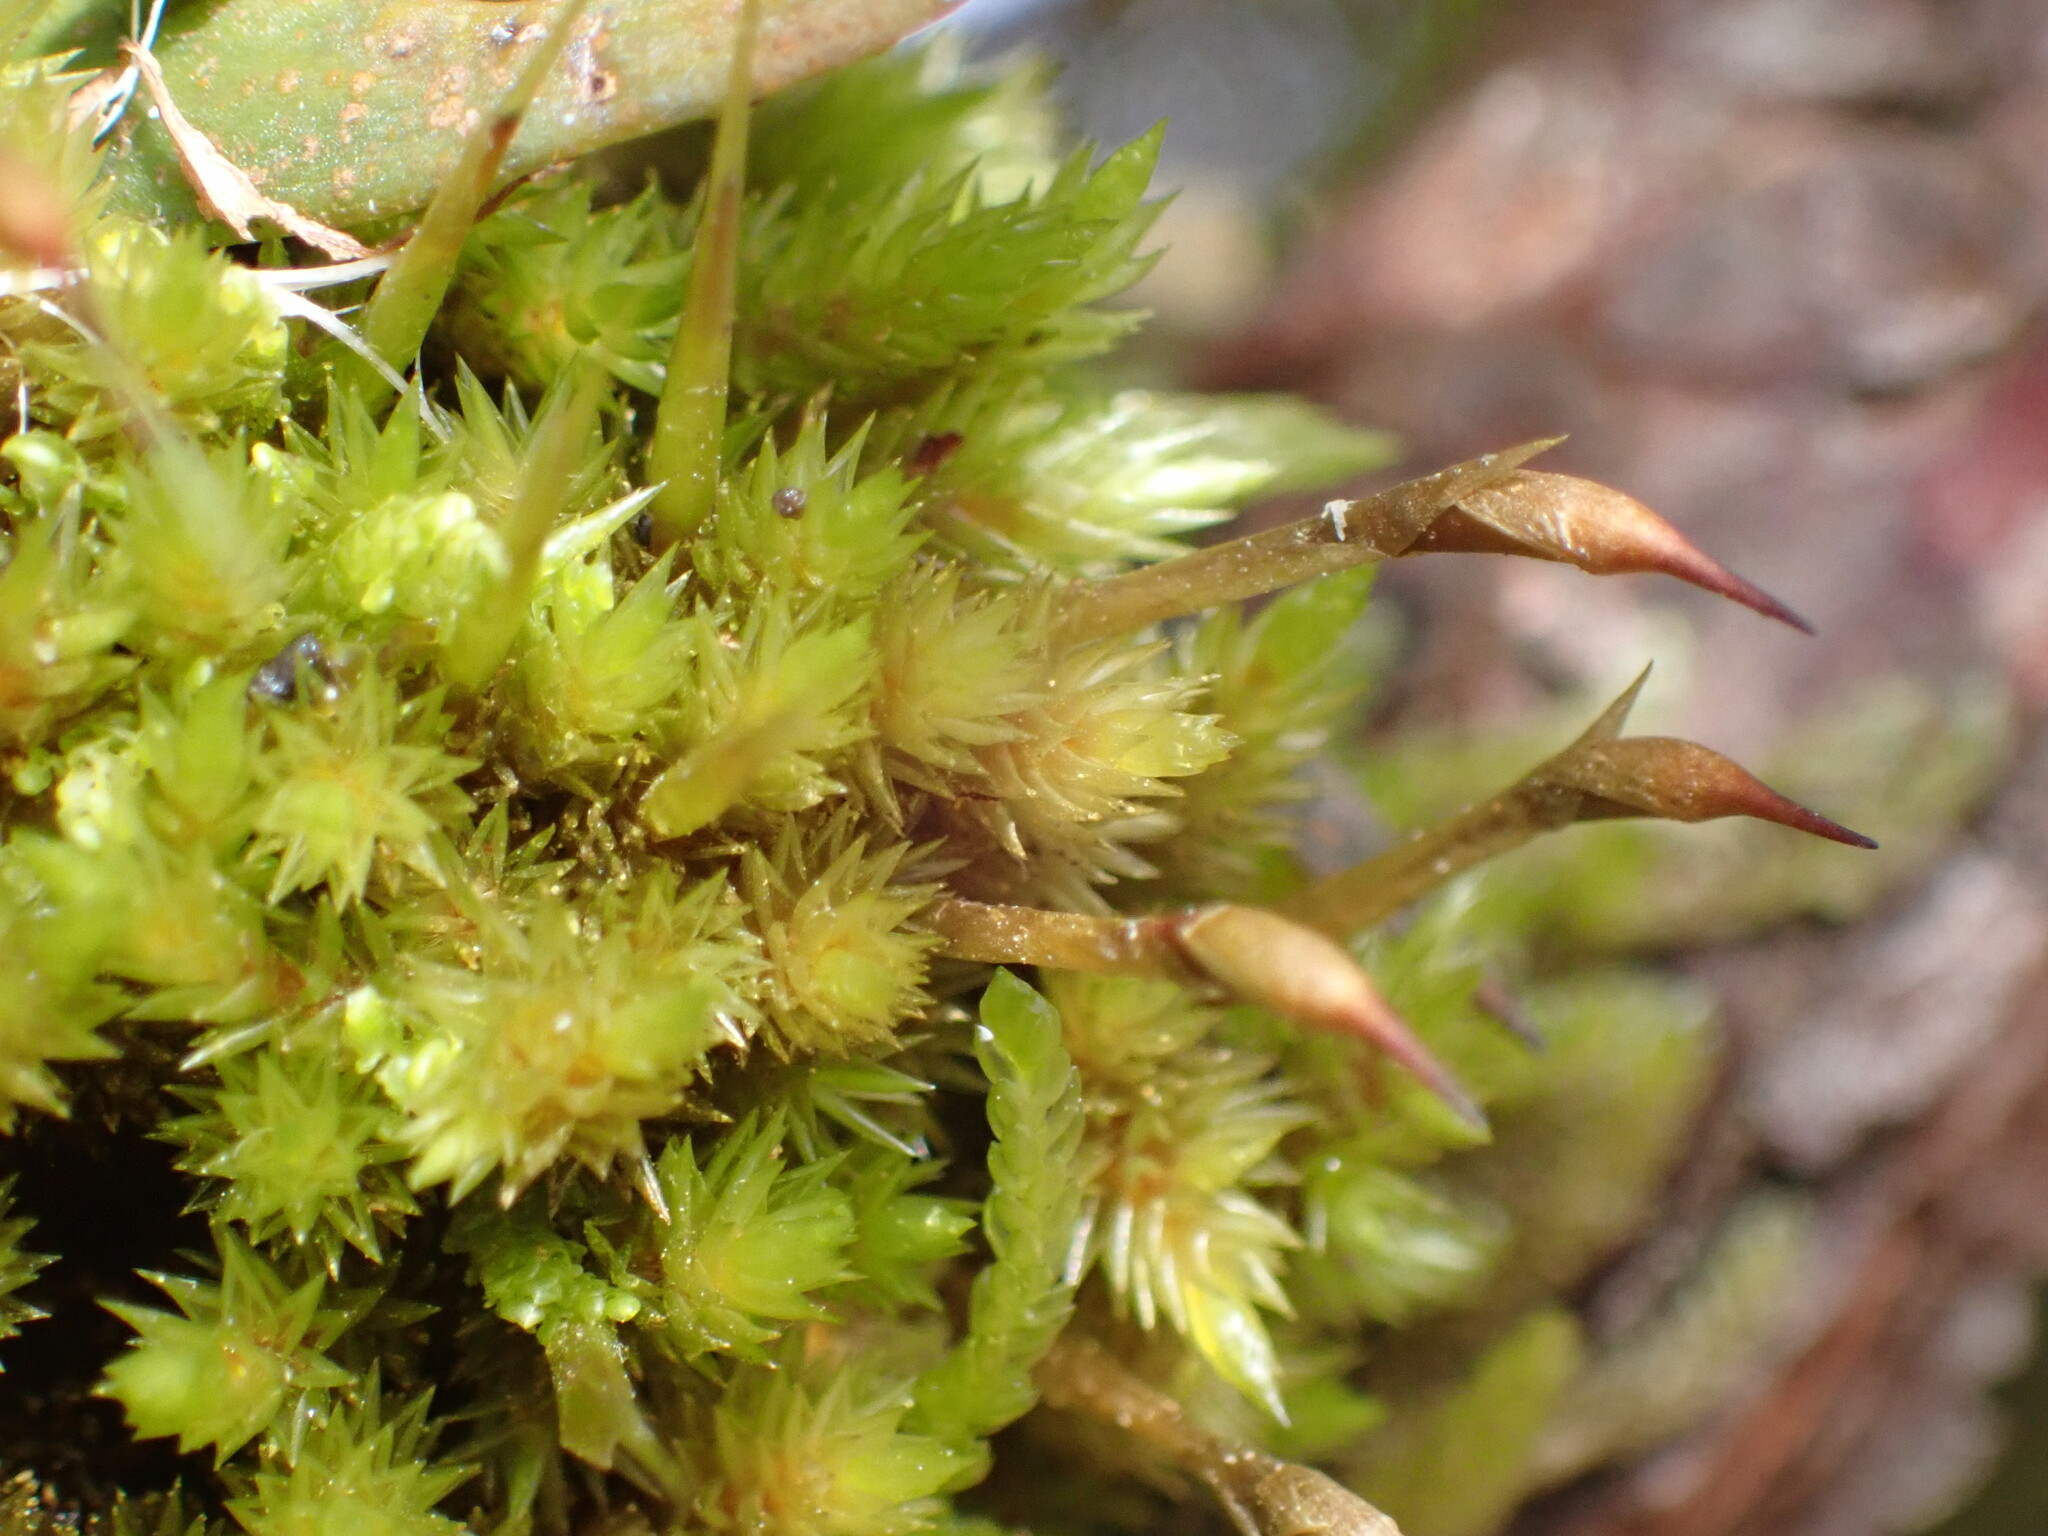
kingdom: Plantae
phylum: Bryophyta
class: Bryopsida
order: Dicranales
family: Dicranaceae
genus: Dicnemon
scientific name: Dicnemon calycinum
